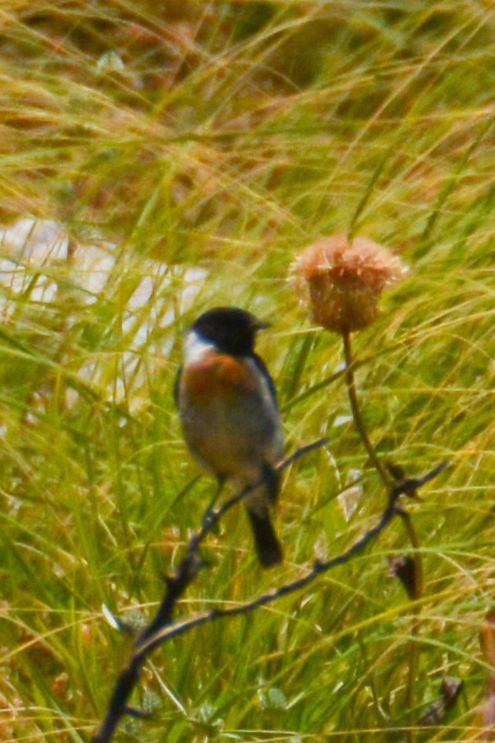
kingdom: Animalia
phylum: Chordata
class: Aves
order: Passeriformes
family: Muscicapidae
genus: Saxicola
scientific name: Saxicola rubicola
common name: European stonechat
